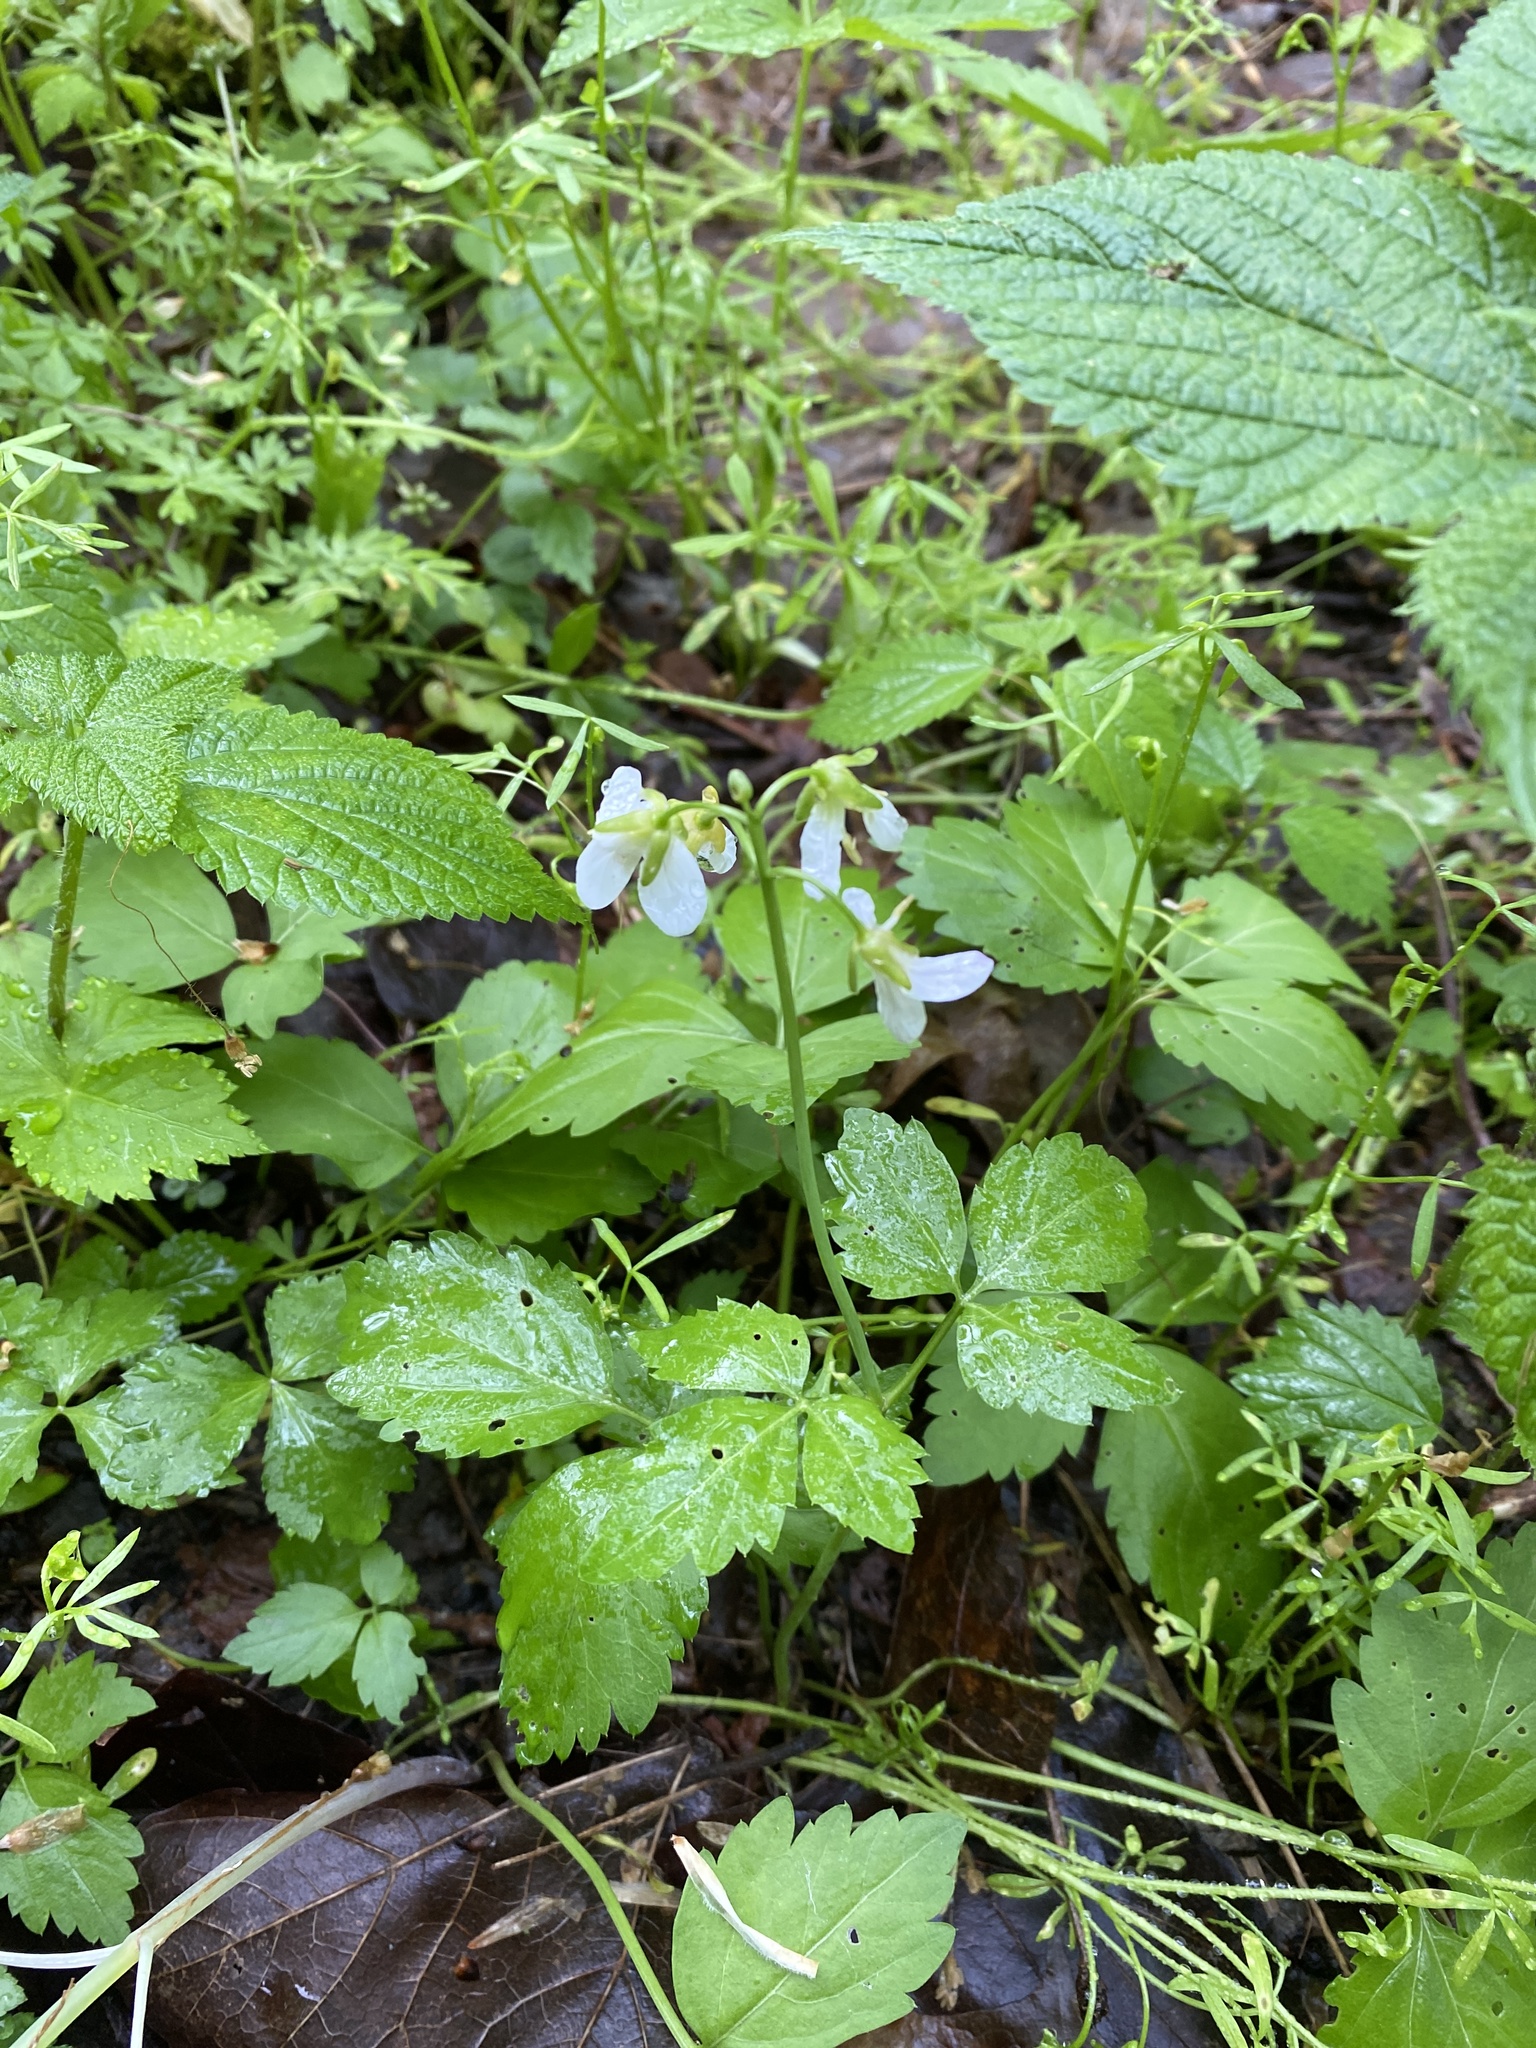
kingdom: Plantae
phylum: Tracheophyta
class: Magnoliopsida
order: Brassicales
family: Brassicaceae
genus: Cardamine
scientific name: Cardamine diphylla
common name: Broad-leaved toothwort
